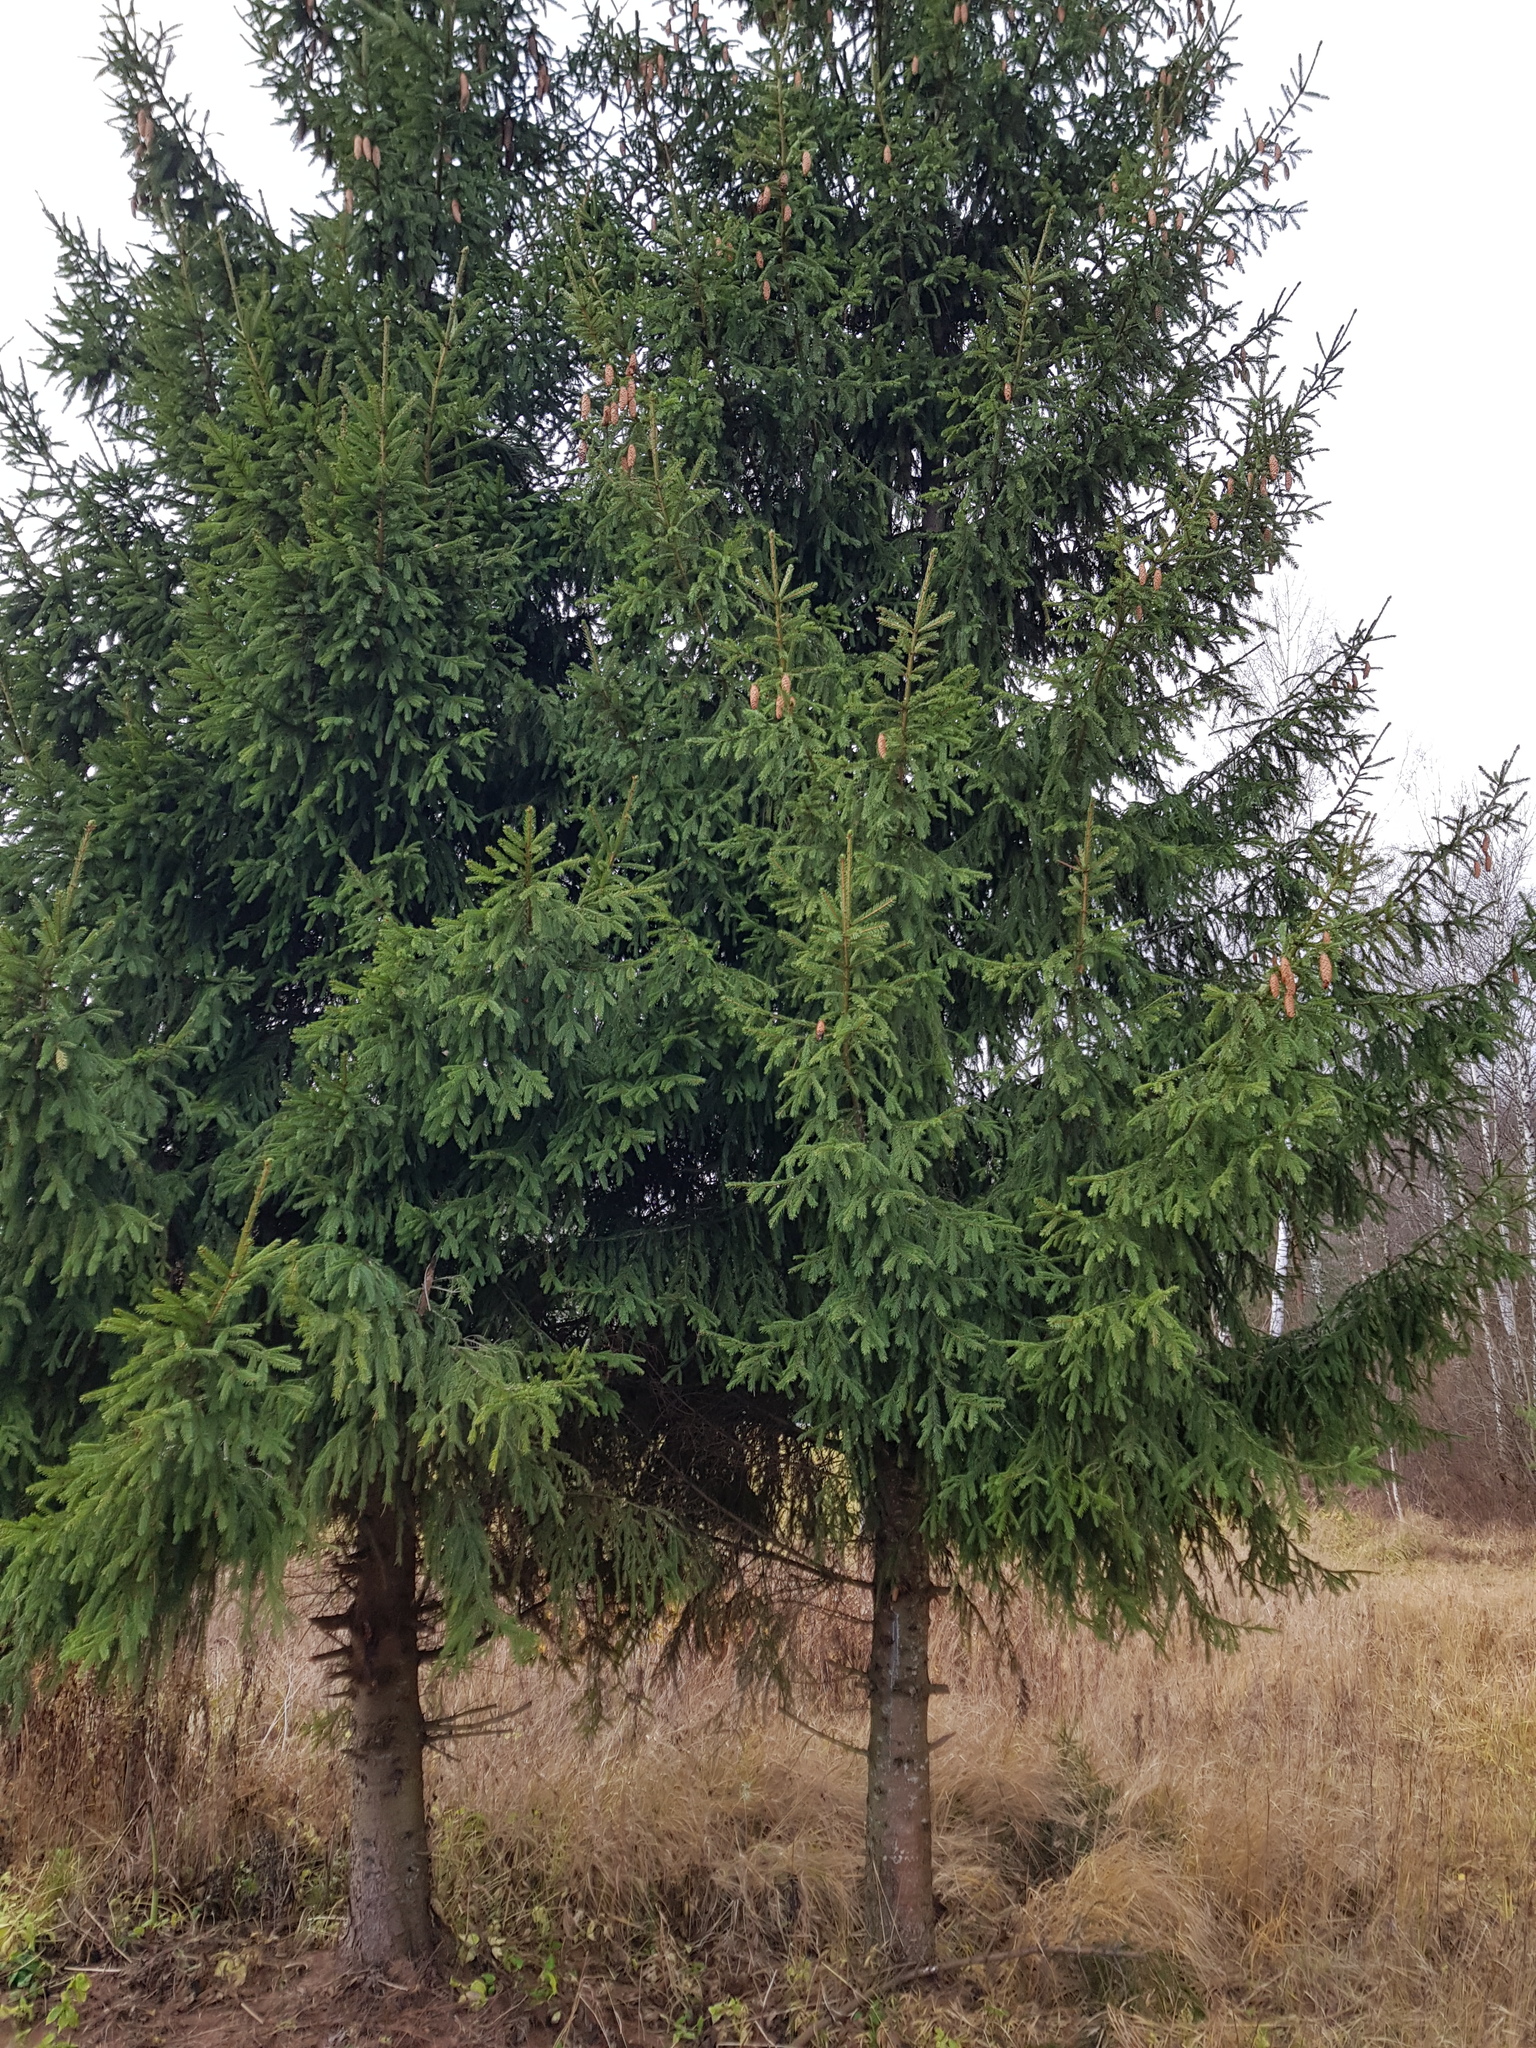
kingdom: Plantae
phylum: Tracheophyta
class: Pinopsida
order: Pinales
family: Pinaceae
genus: Picea
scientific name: Picea abies
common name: Norway spruce
